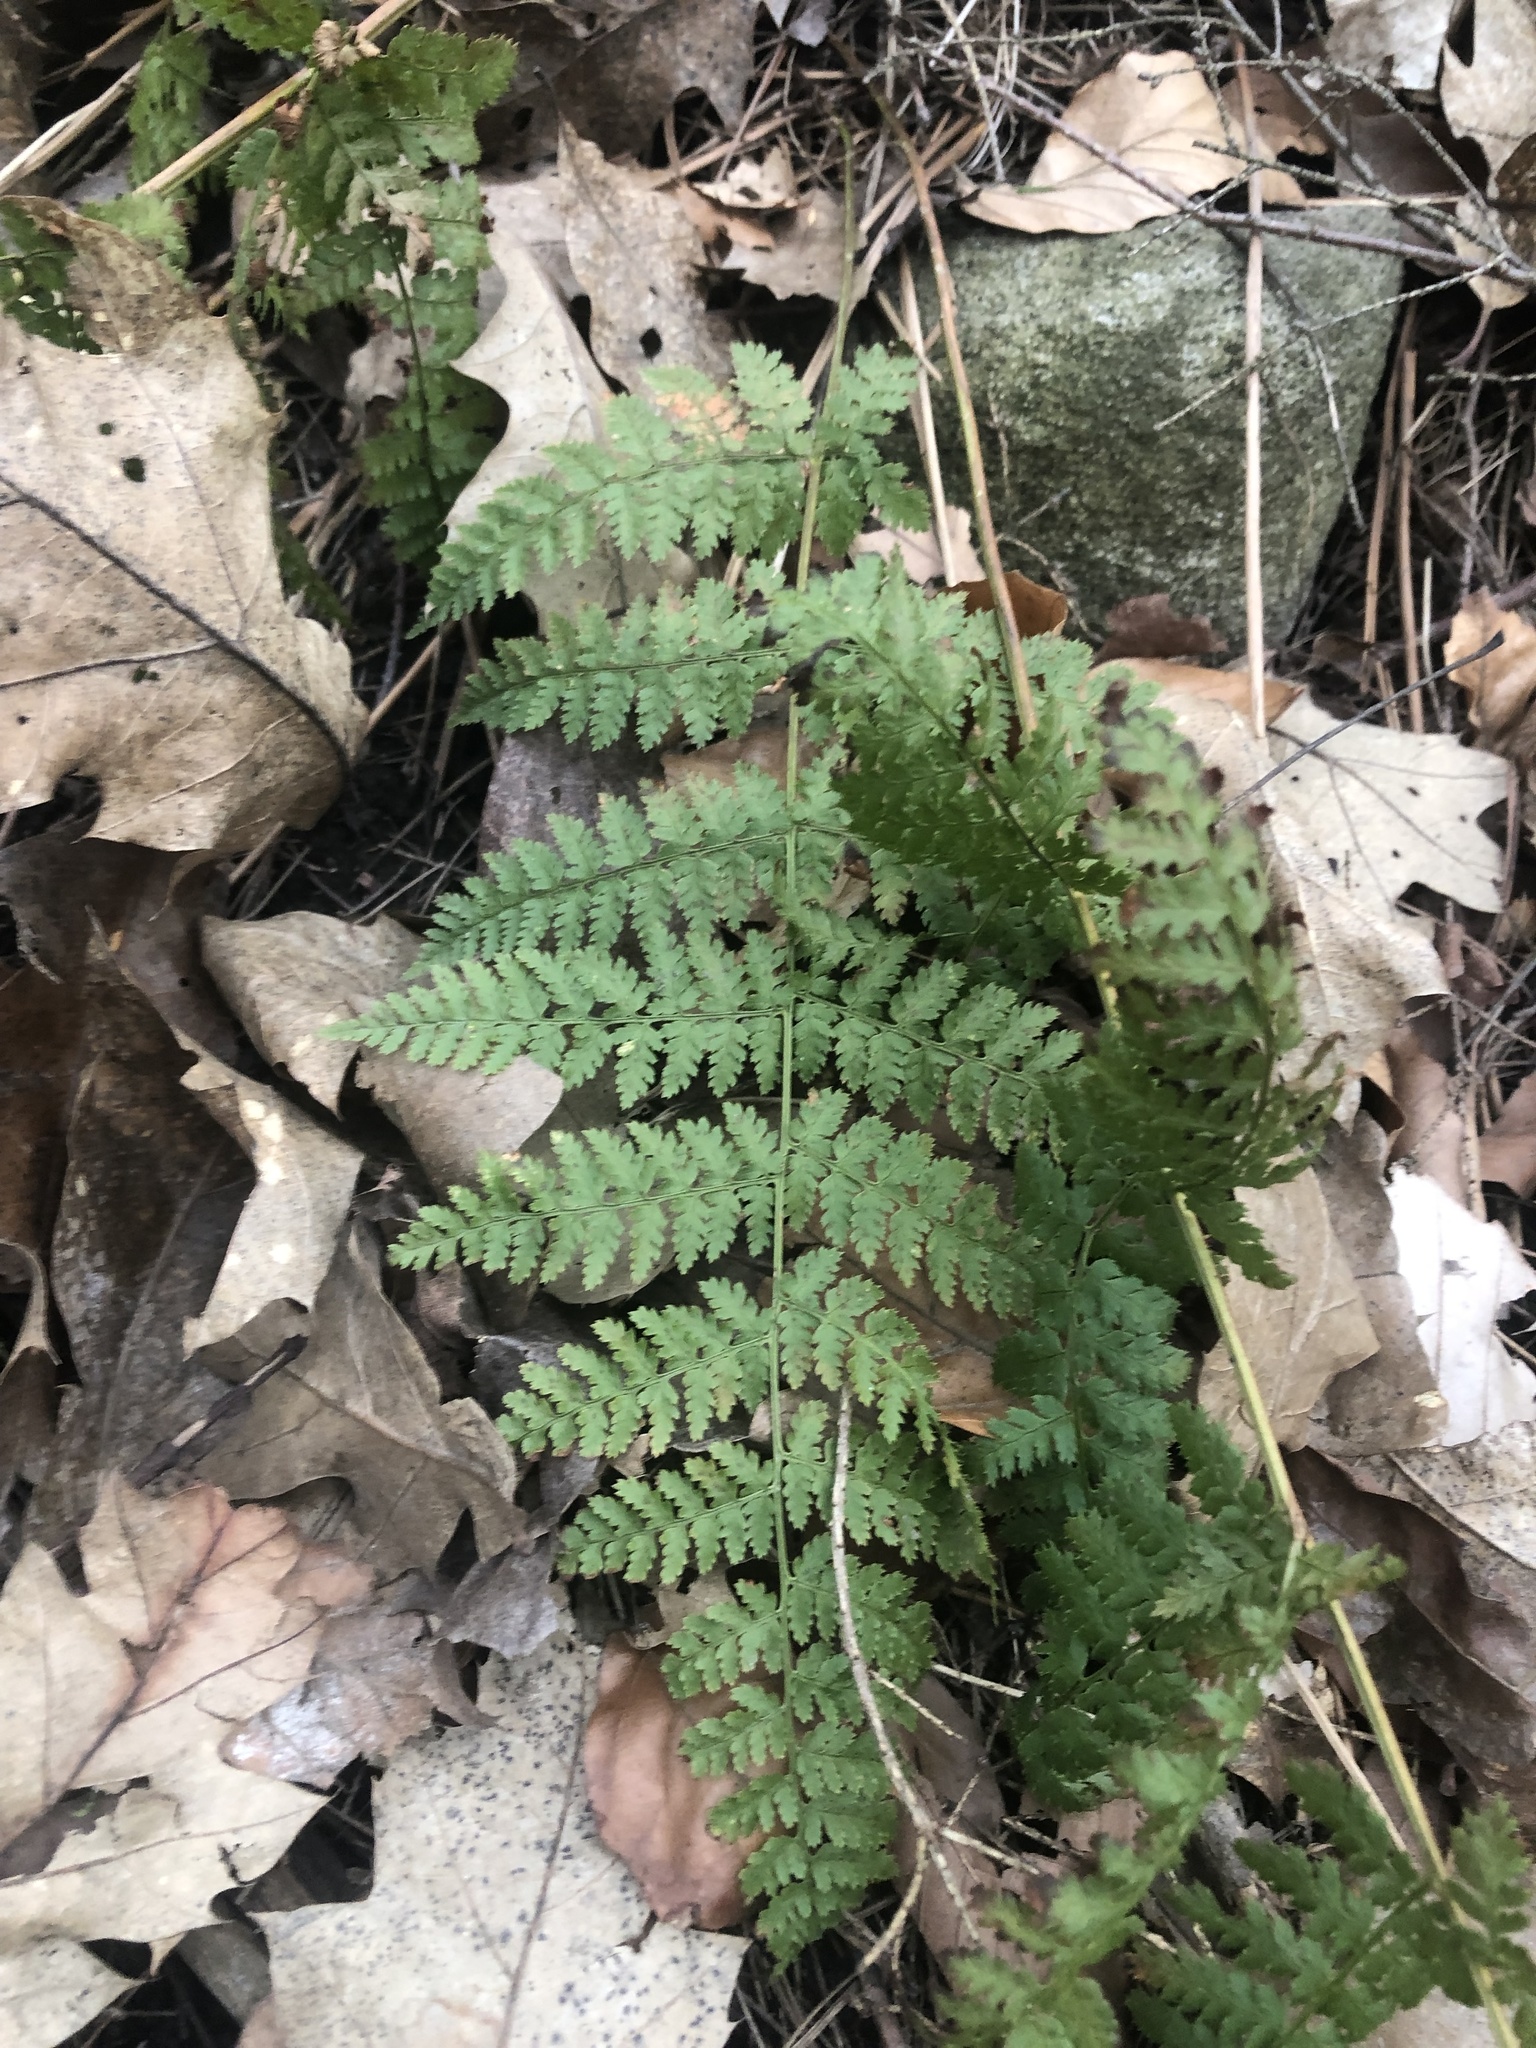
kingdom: Plantae
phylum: Tracheophyta
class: Polypodiopsida
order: Polypodiales
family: Dryopteridaceae
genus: Dryopteris
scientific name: Dryopteris intermedia
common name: Evergreen wood fern
